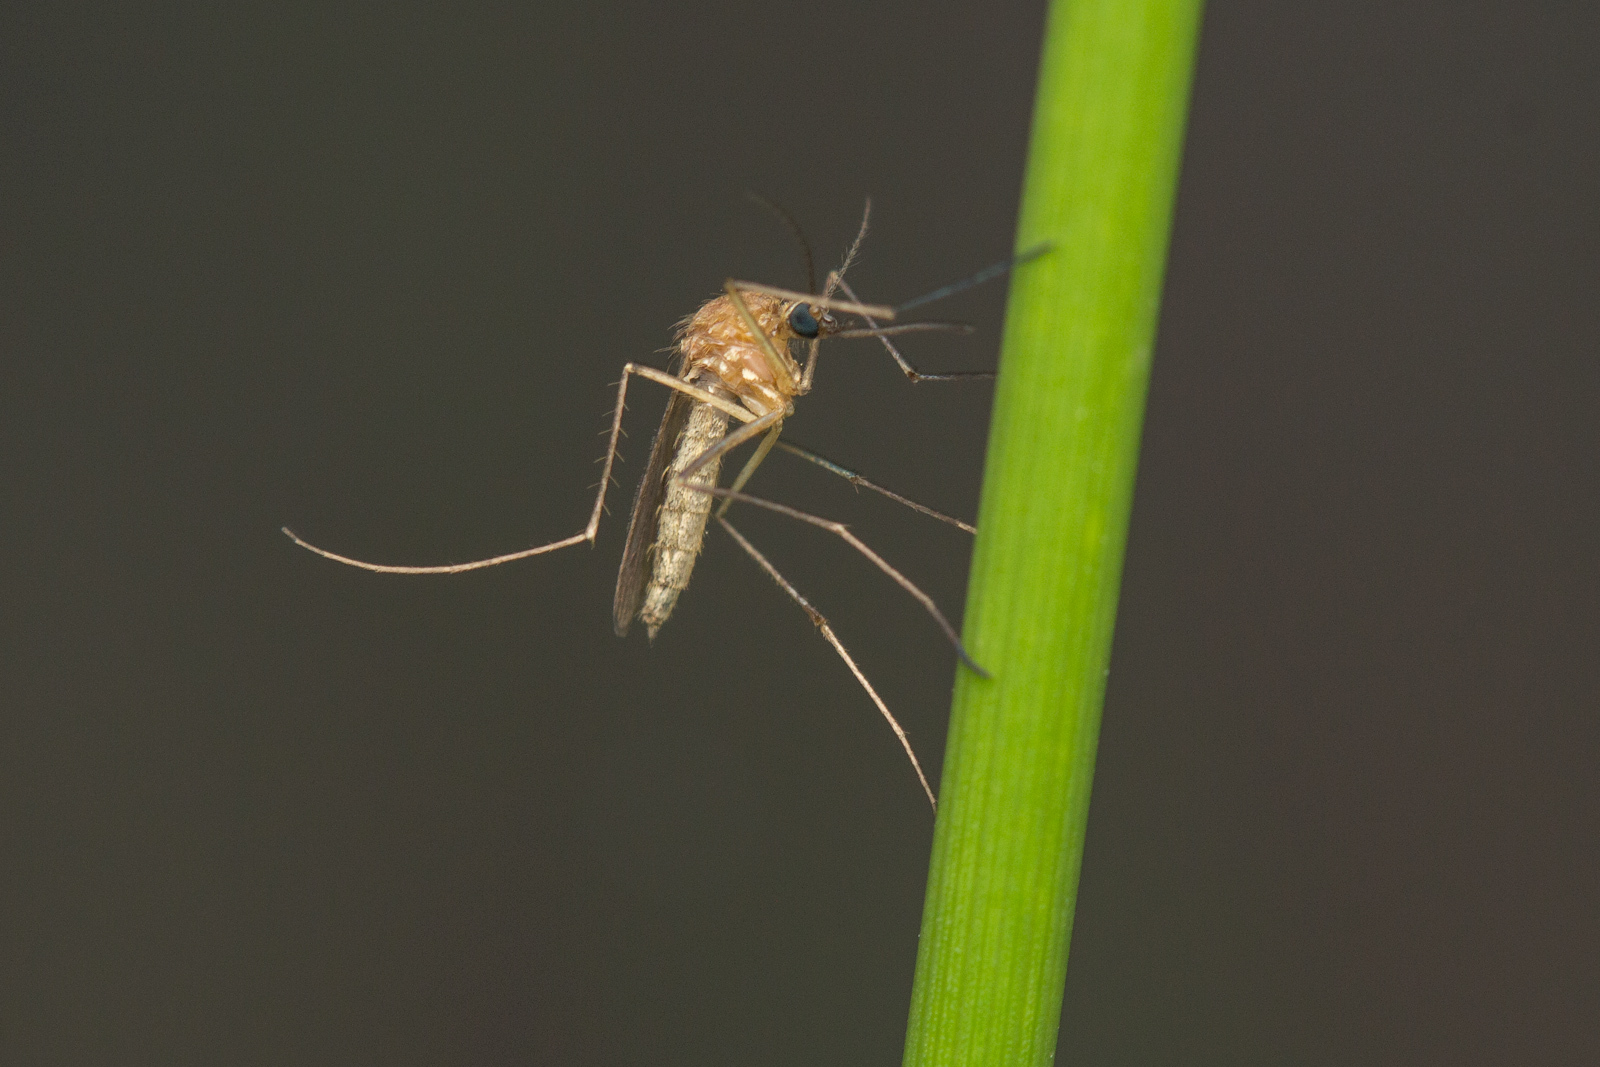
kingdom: Animalia
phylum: Arthropoda
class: Insecta
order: Diptera
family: Culicidae
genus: Aedes
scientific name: Aedes cinereus
